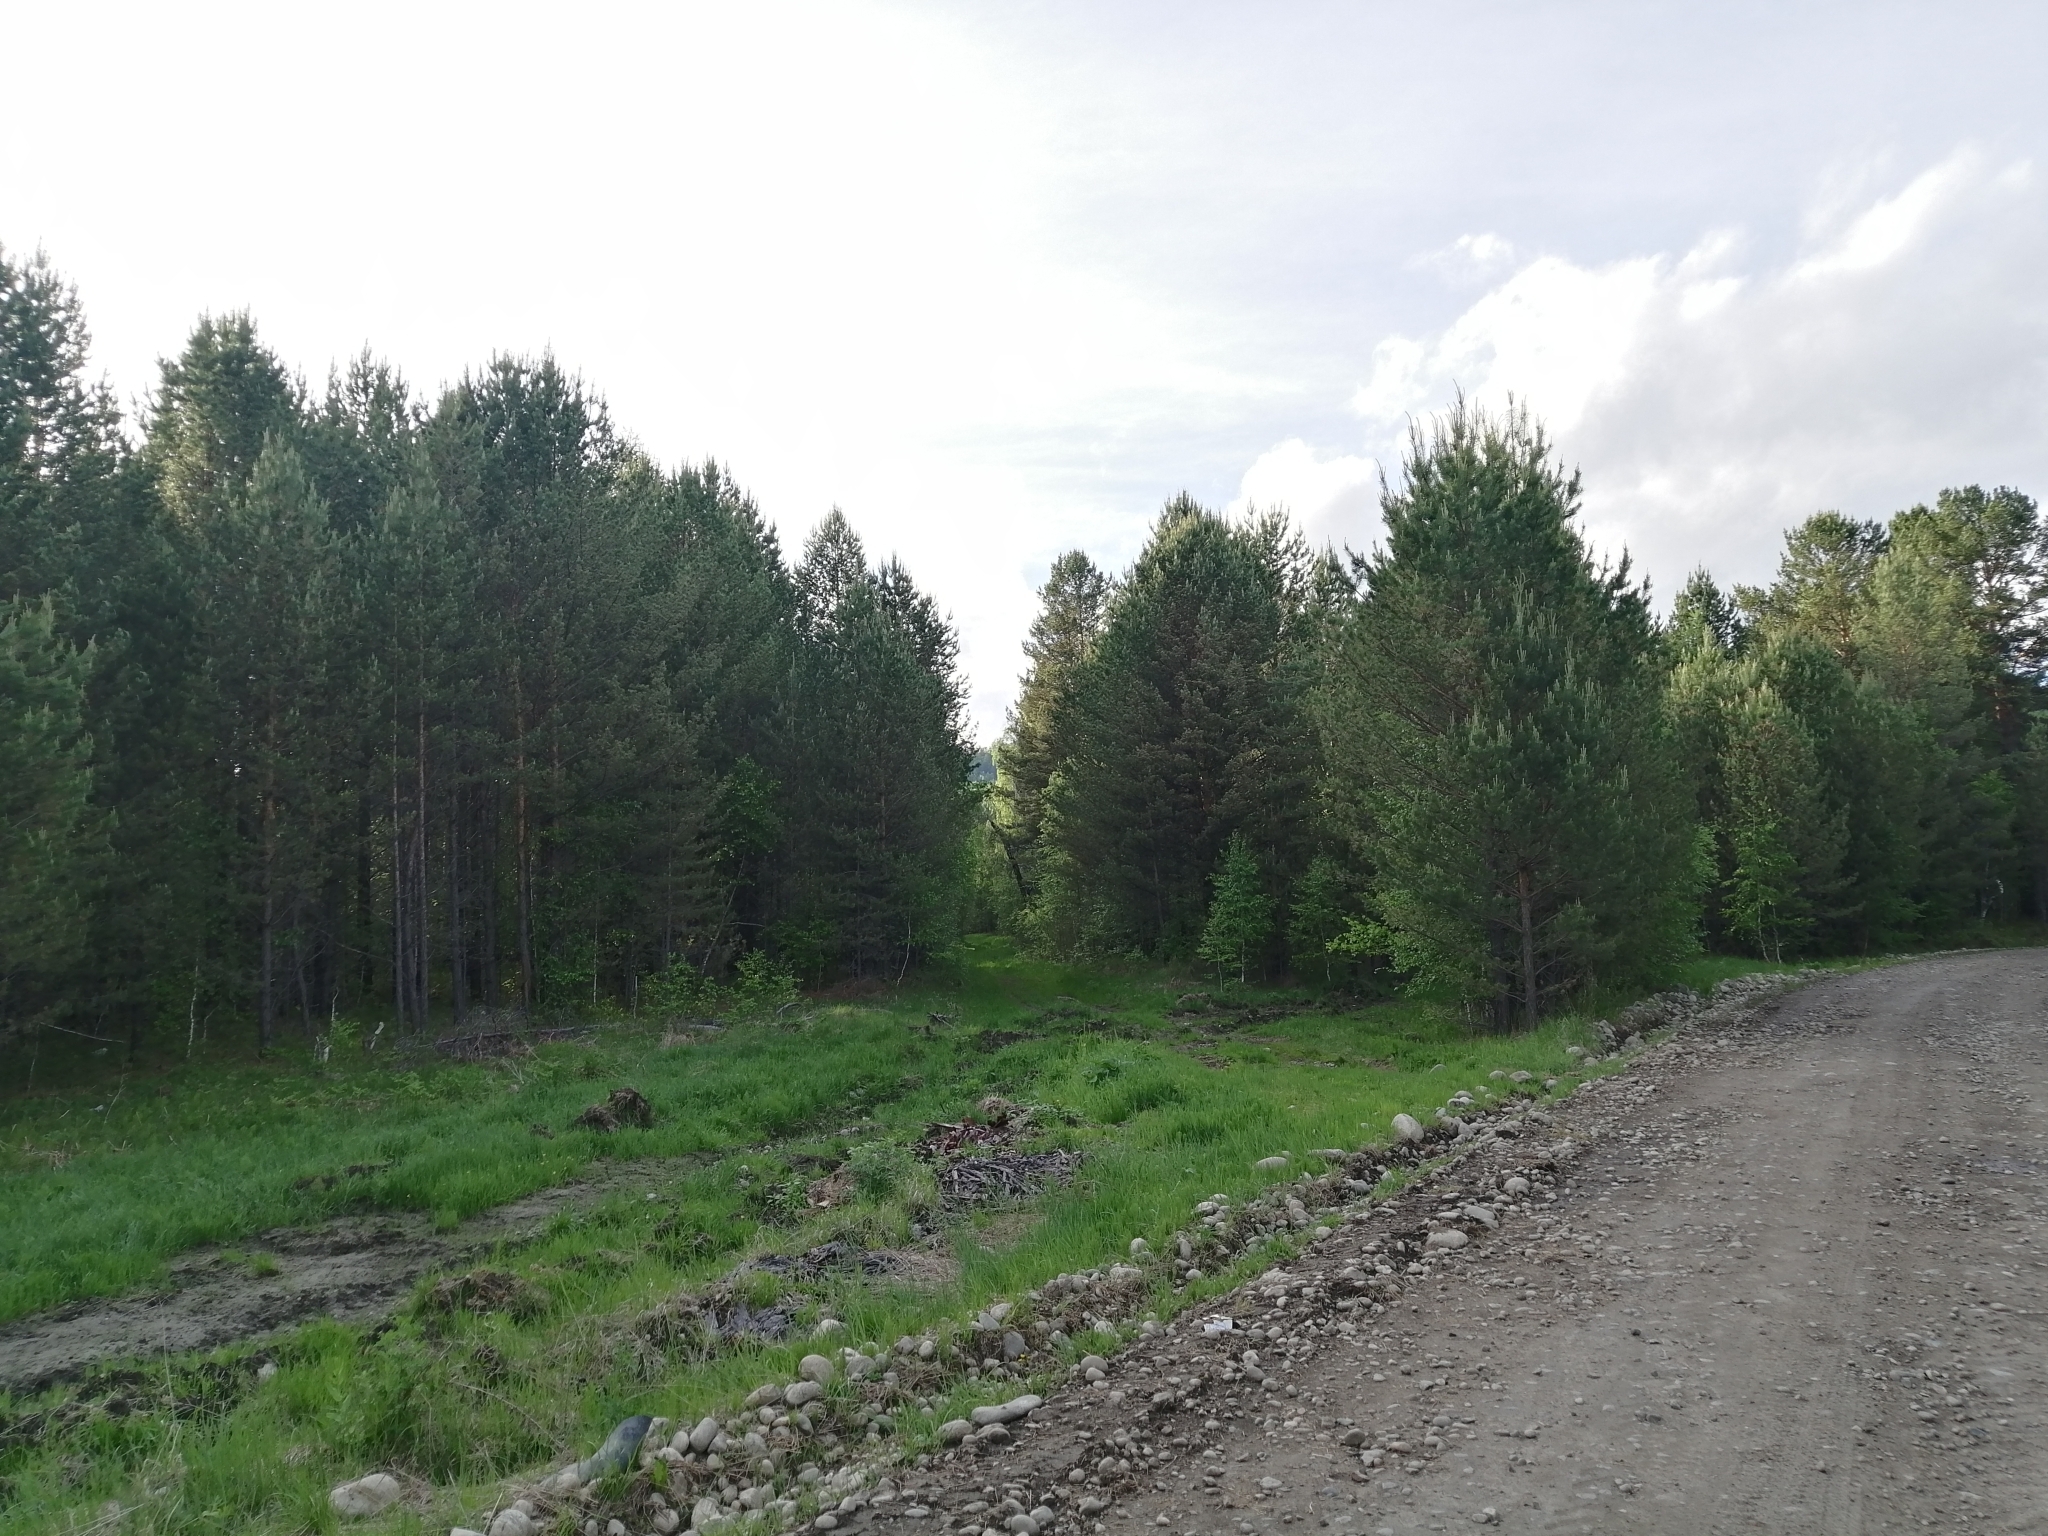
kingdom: Plantae
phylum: Tracheophyta
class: Pinopsida
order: Pinales
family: Pinaceae
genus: Pinus
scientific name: Pinus sylvestris
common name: Scots pine
